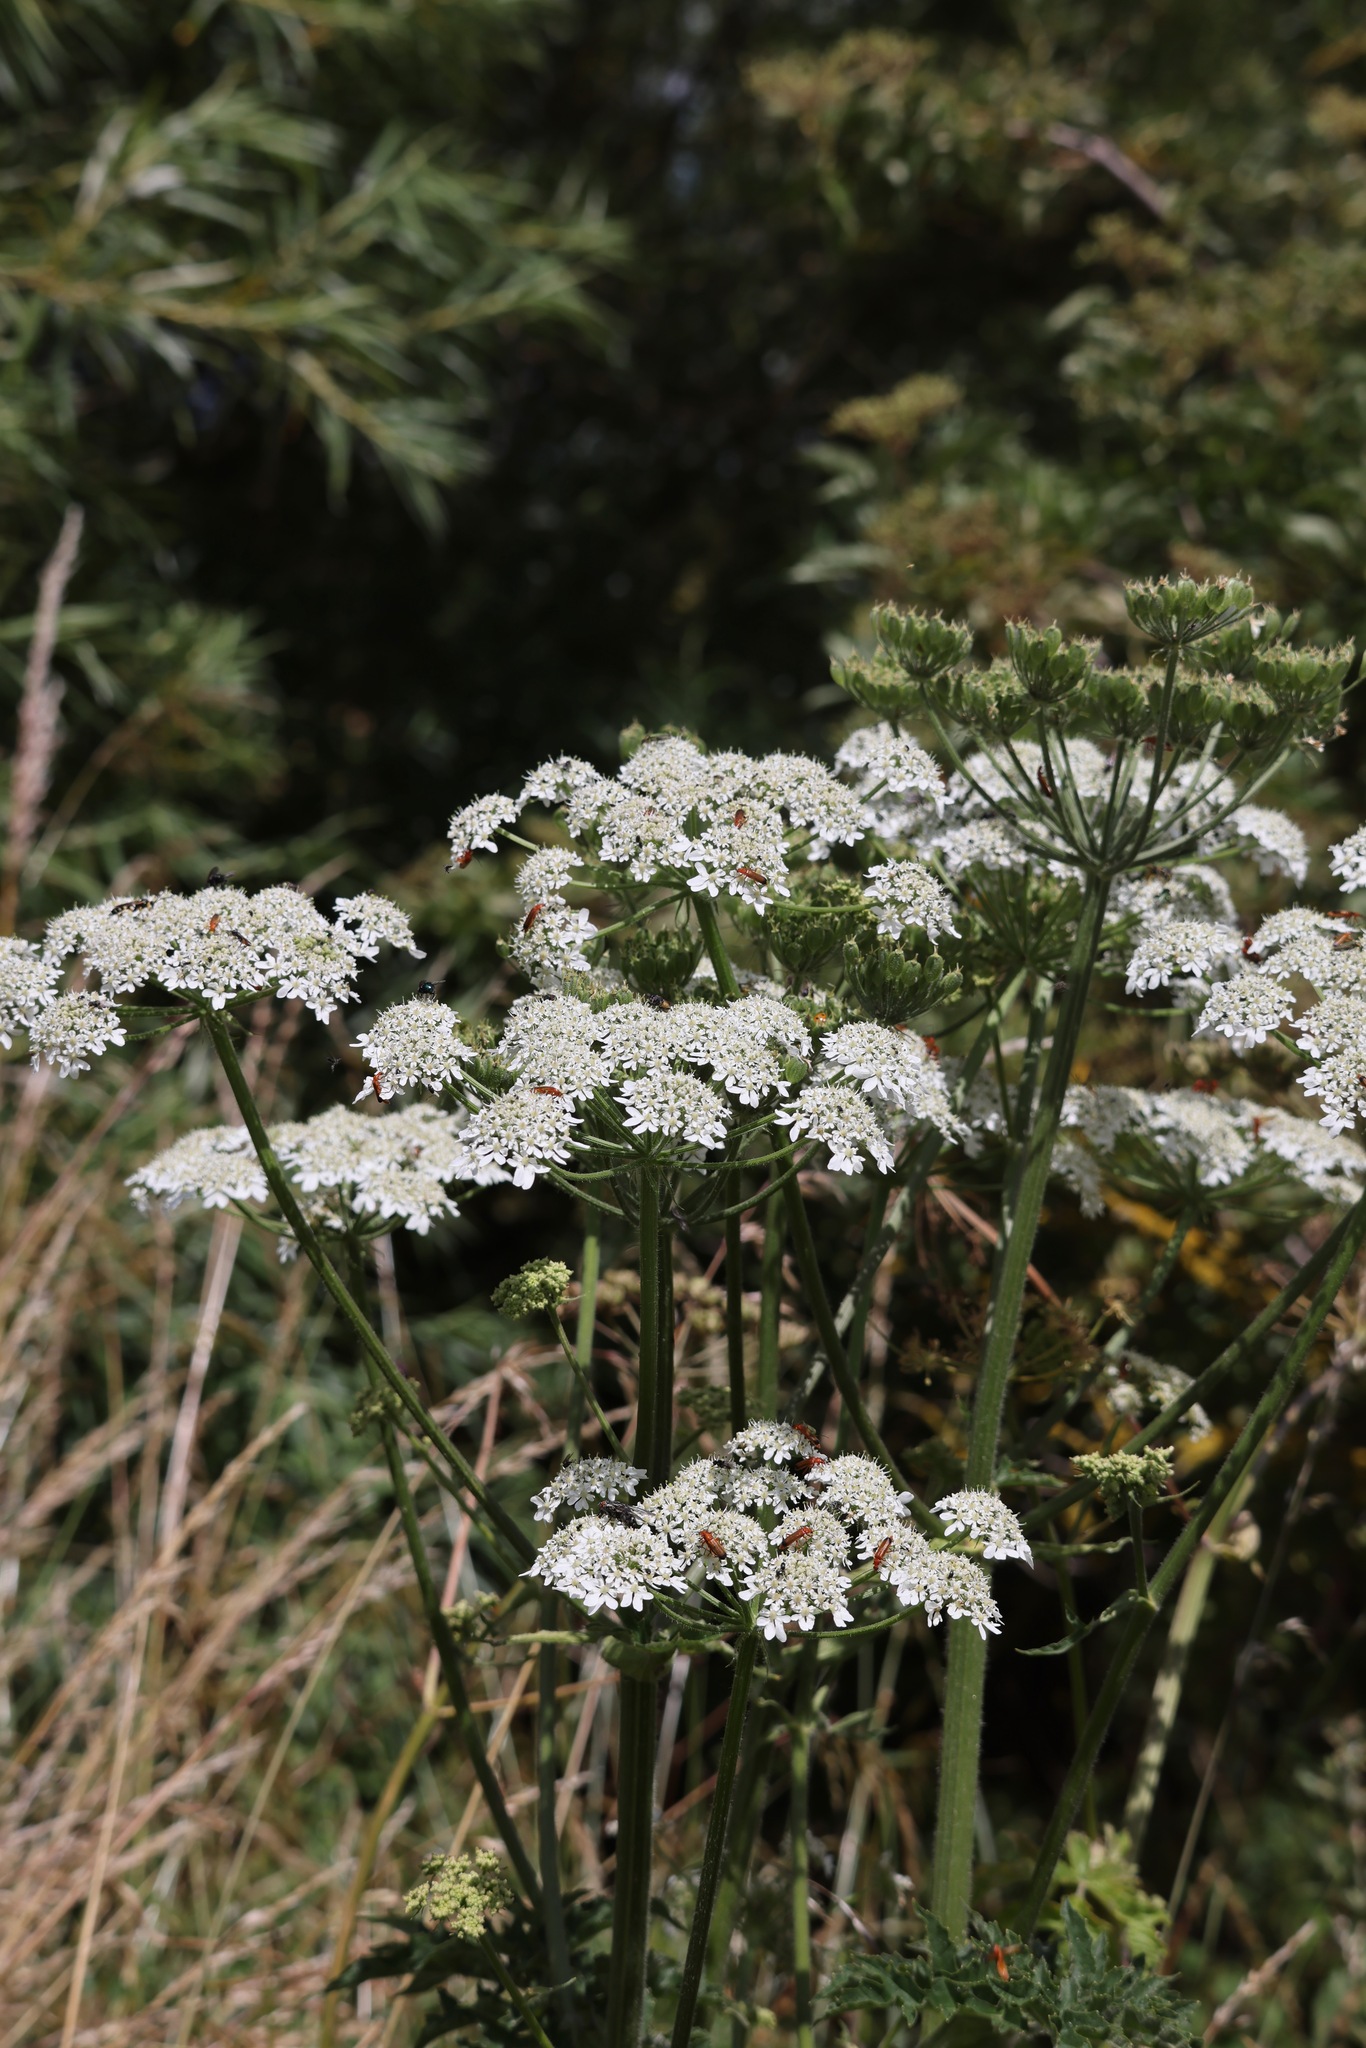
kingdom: Plantae
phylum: Tracheophyta
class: Magnoliopsida
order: Apiales
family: Apiaceae
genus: Heracleum
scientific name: Heracleum sphondylium
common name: Hogweed
